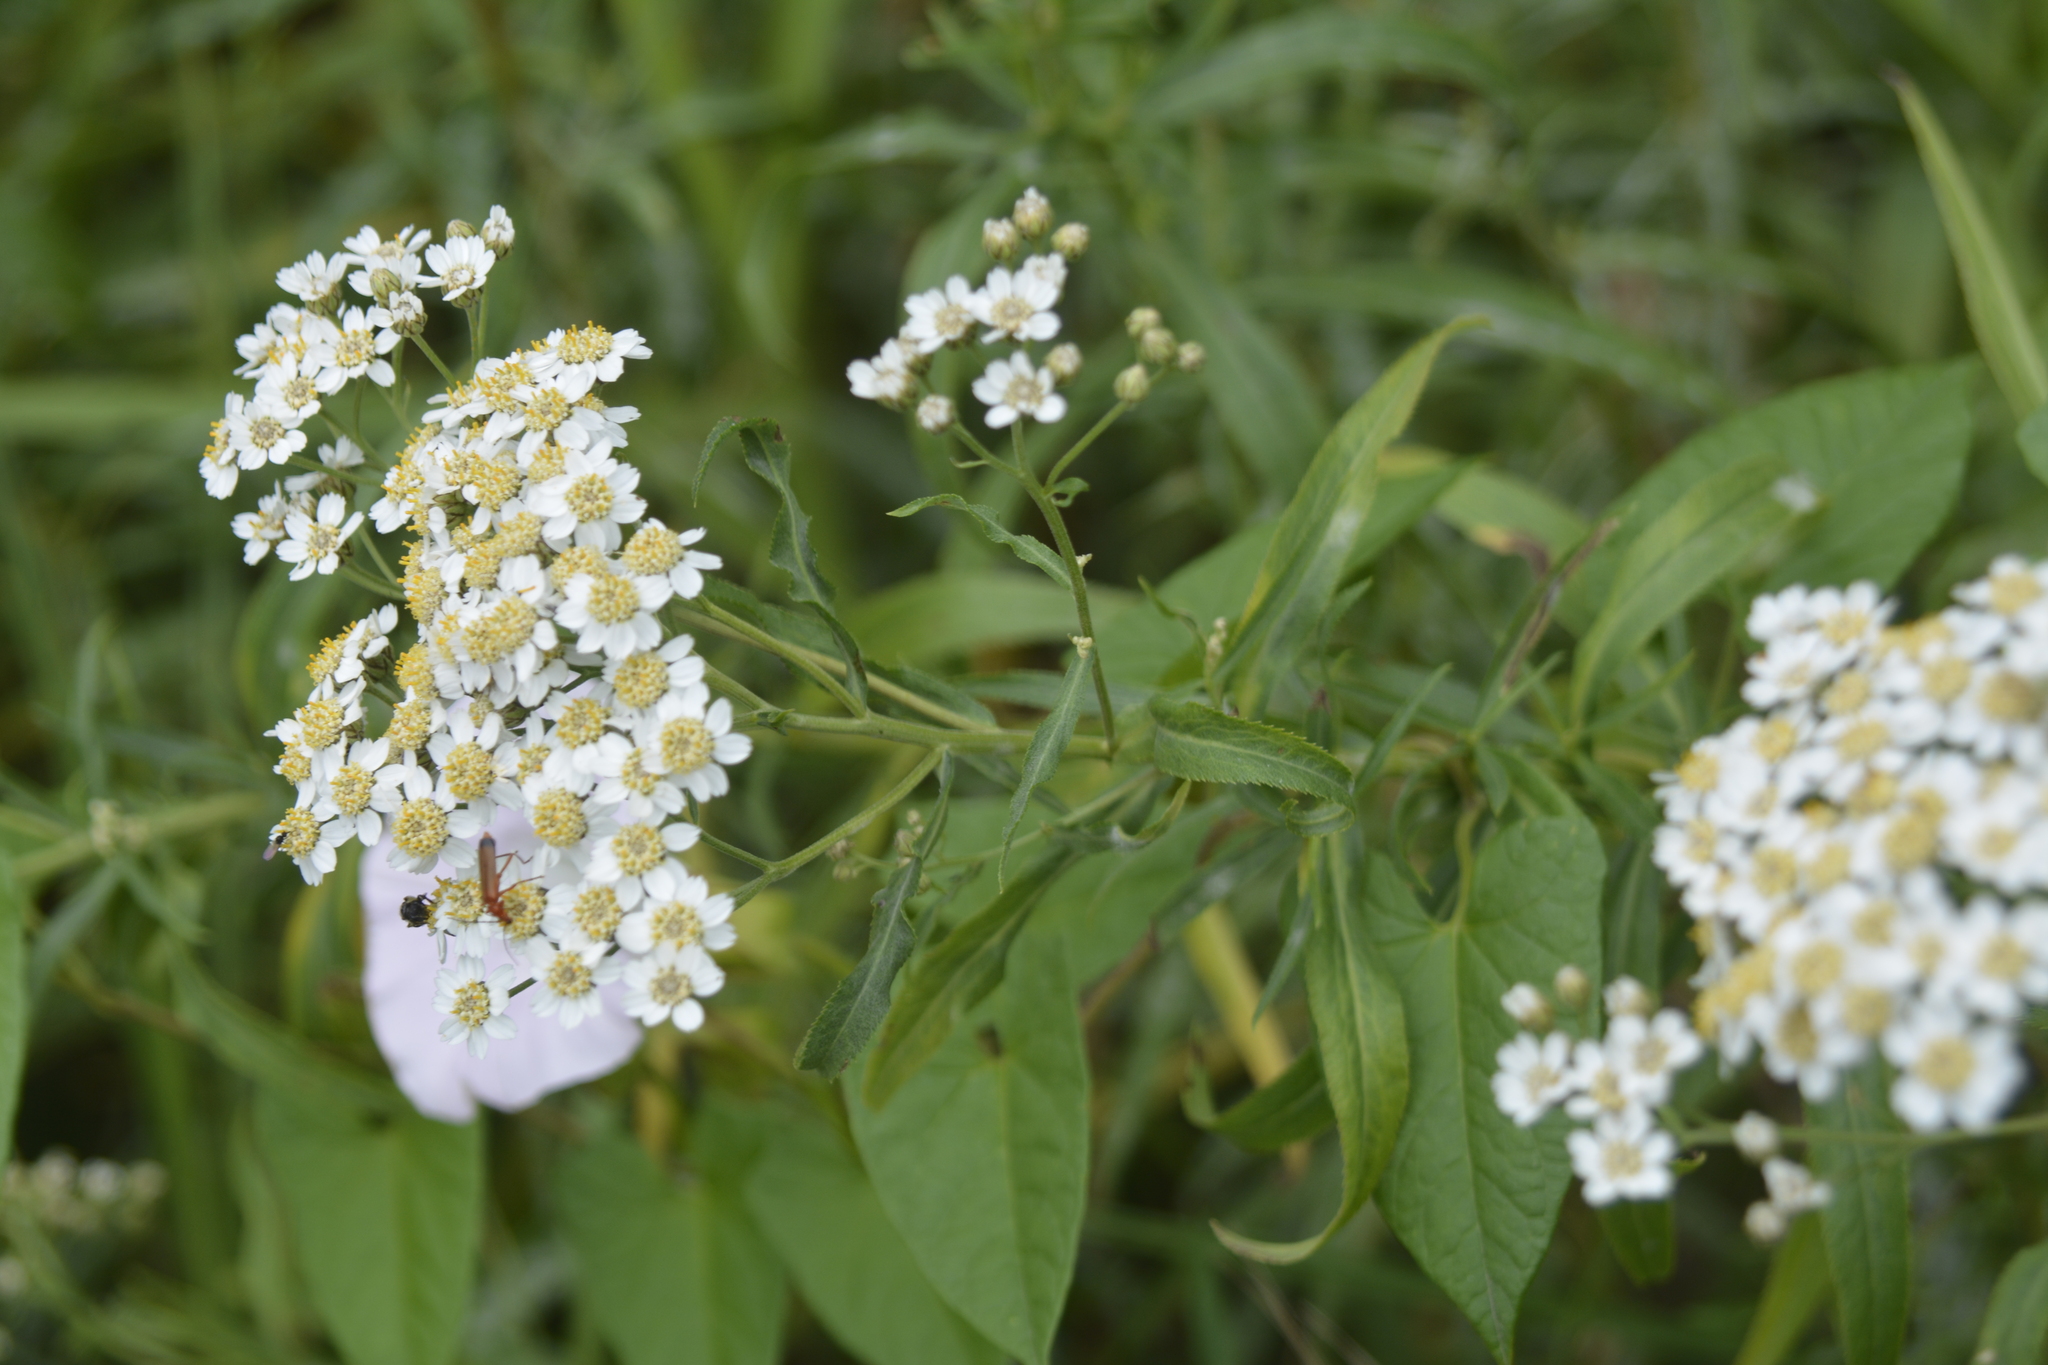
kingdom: Plantae
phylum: Tracheophyta
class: Magnoliopsida
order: Asterales
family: Asteraceae
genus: Achillea
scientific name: Achillea salicifolia
